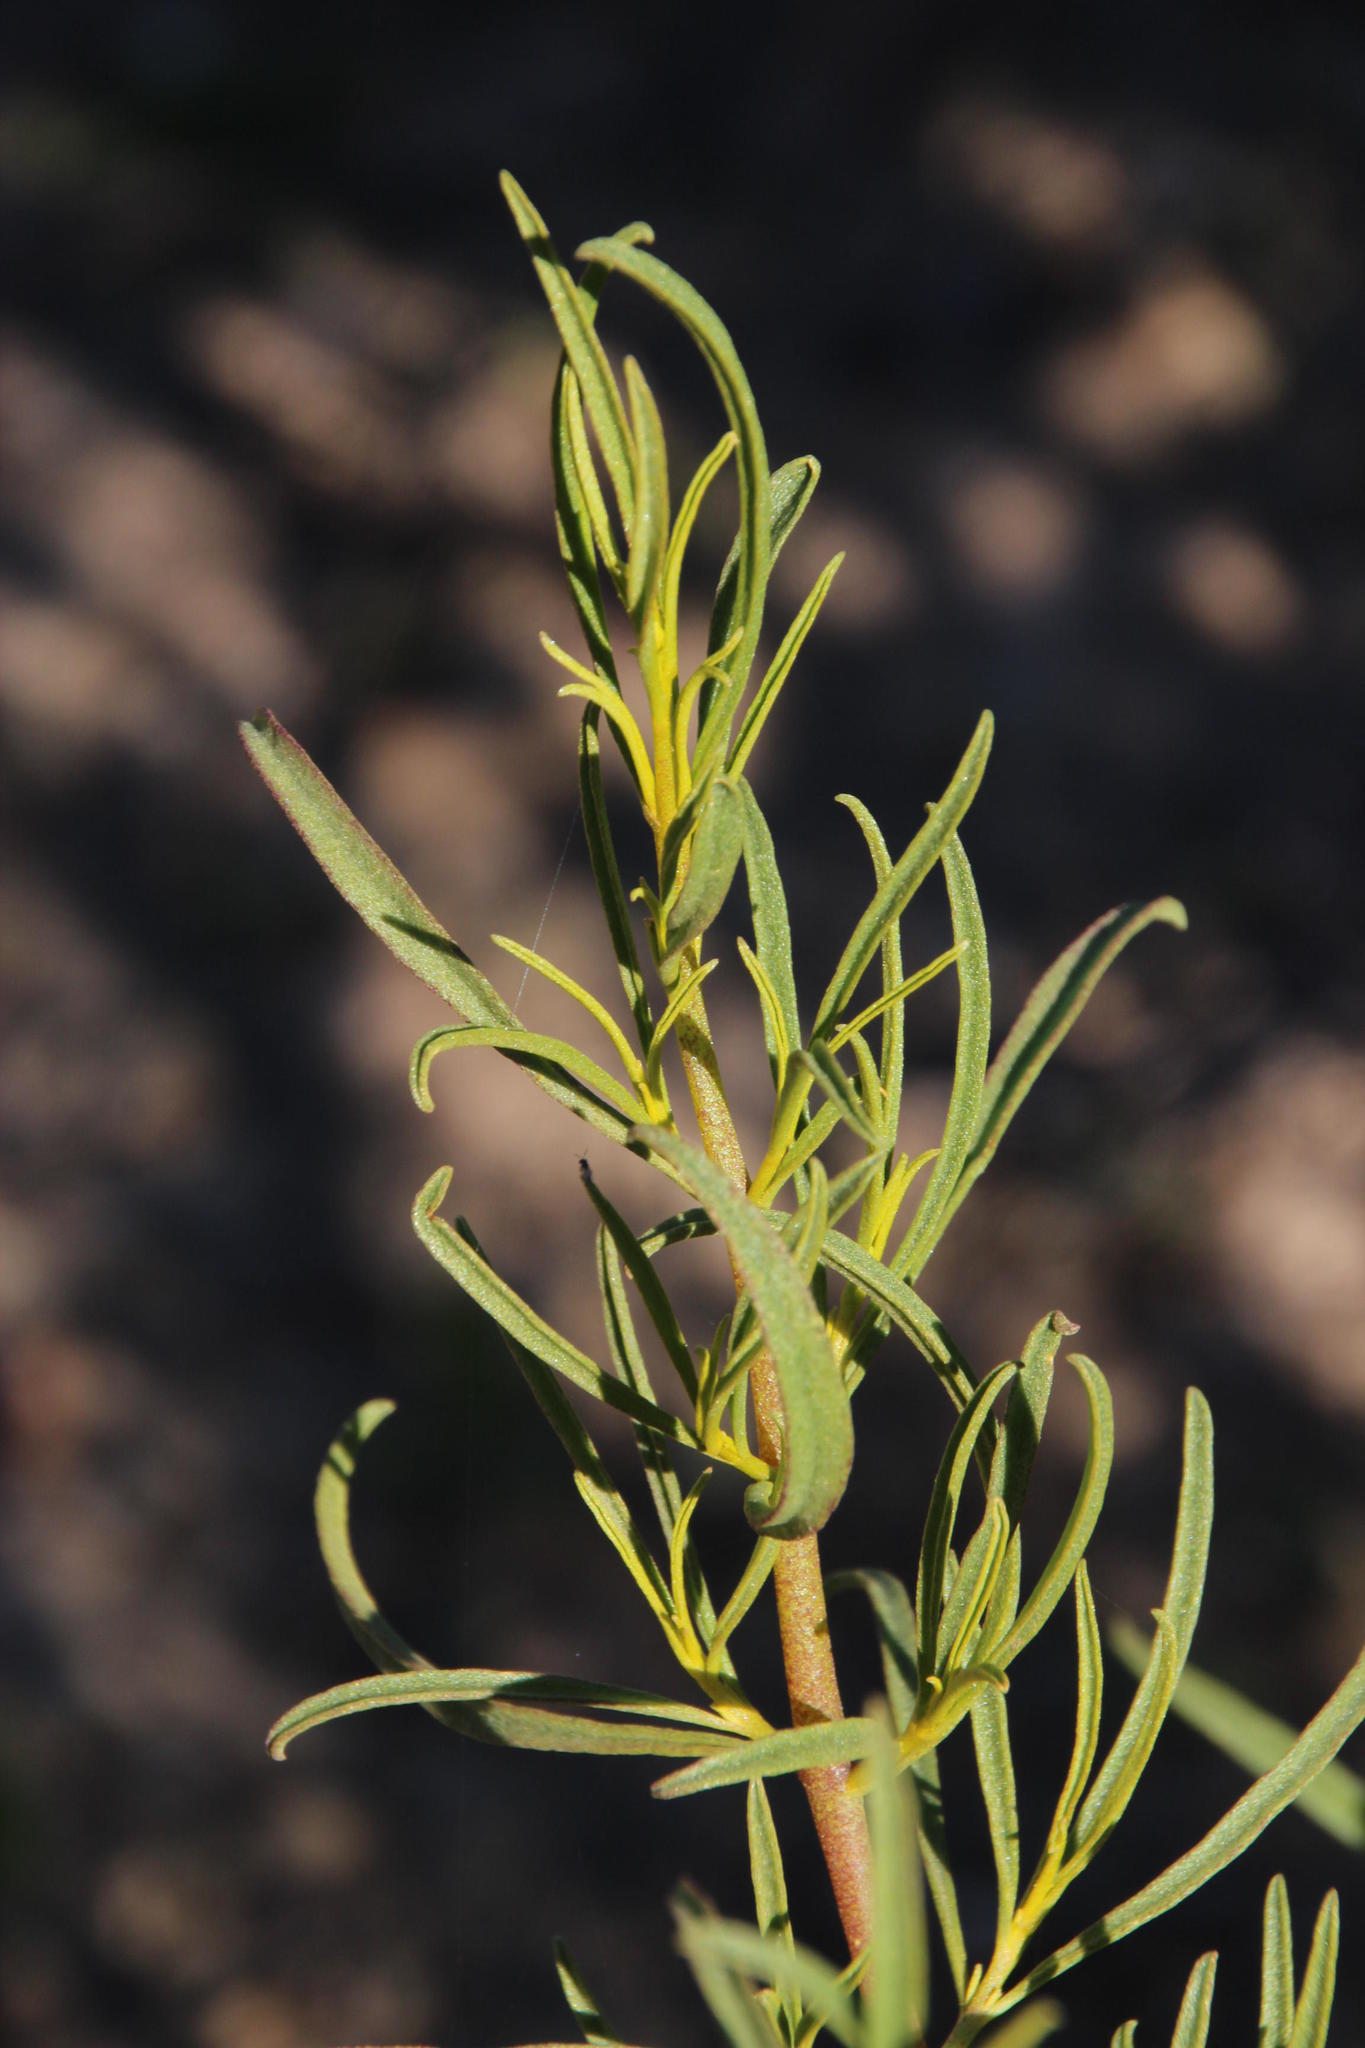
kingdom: Plantae
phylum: Tracheophyta
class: Magnoliopsida
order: Caryophyllales
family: Aizoaceae
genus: Aizoon
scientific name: Aizoon africanum
